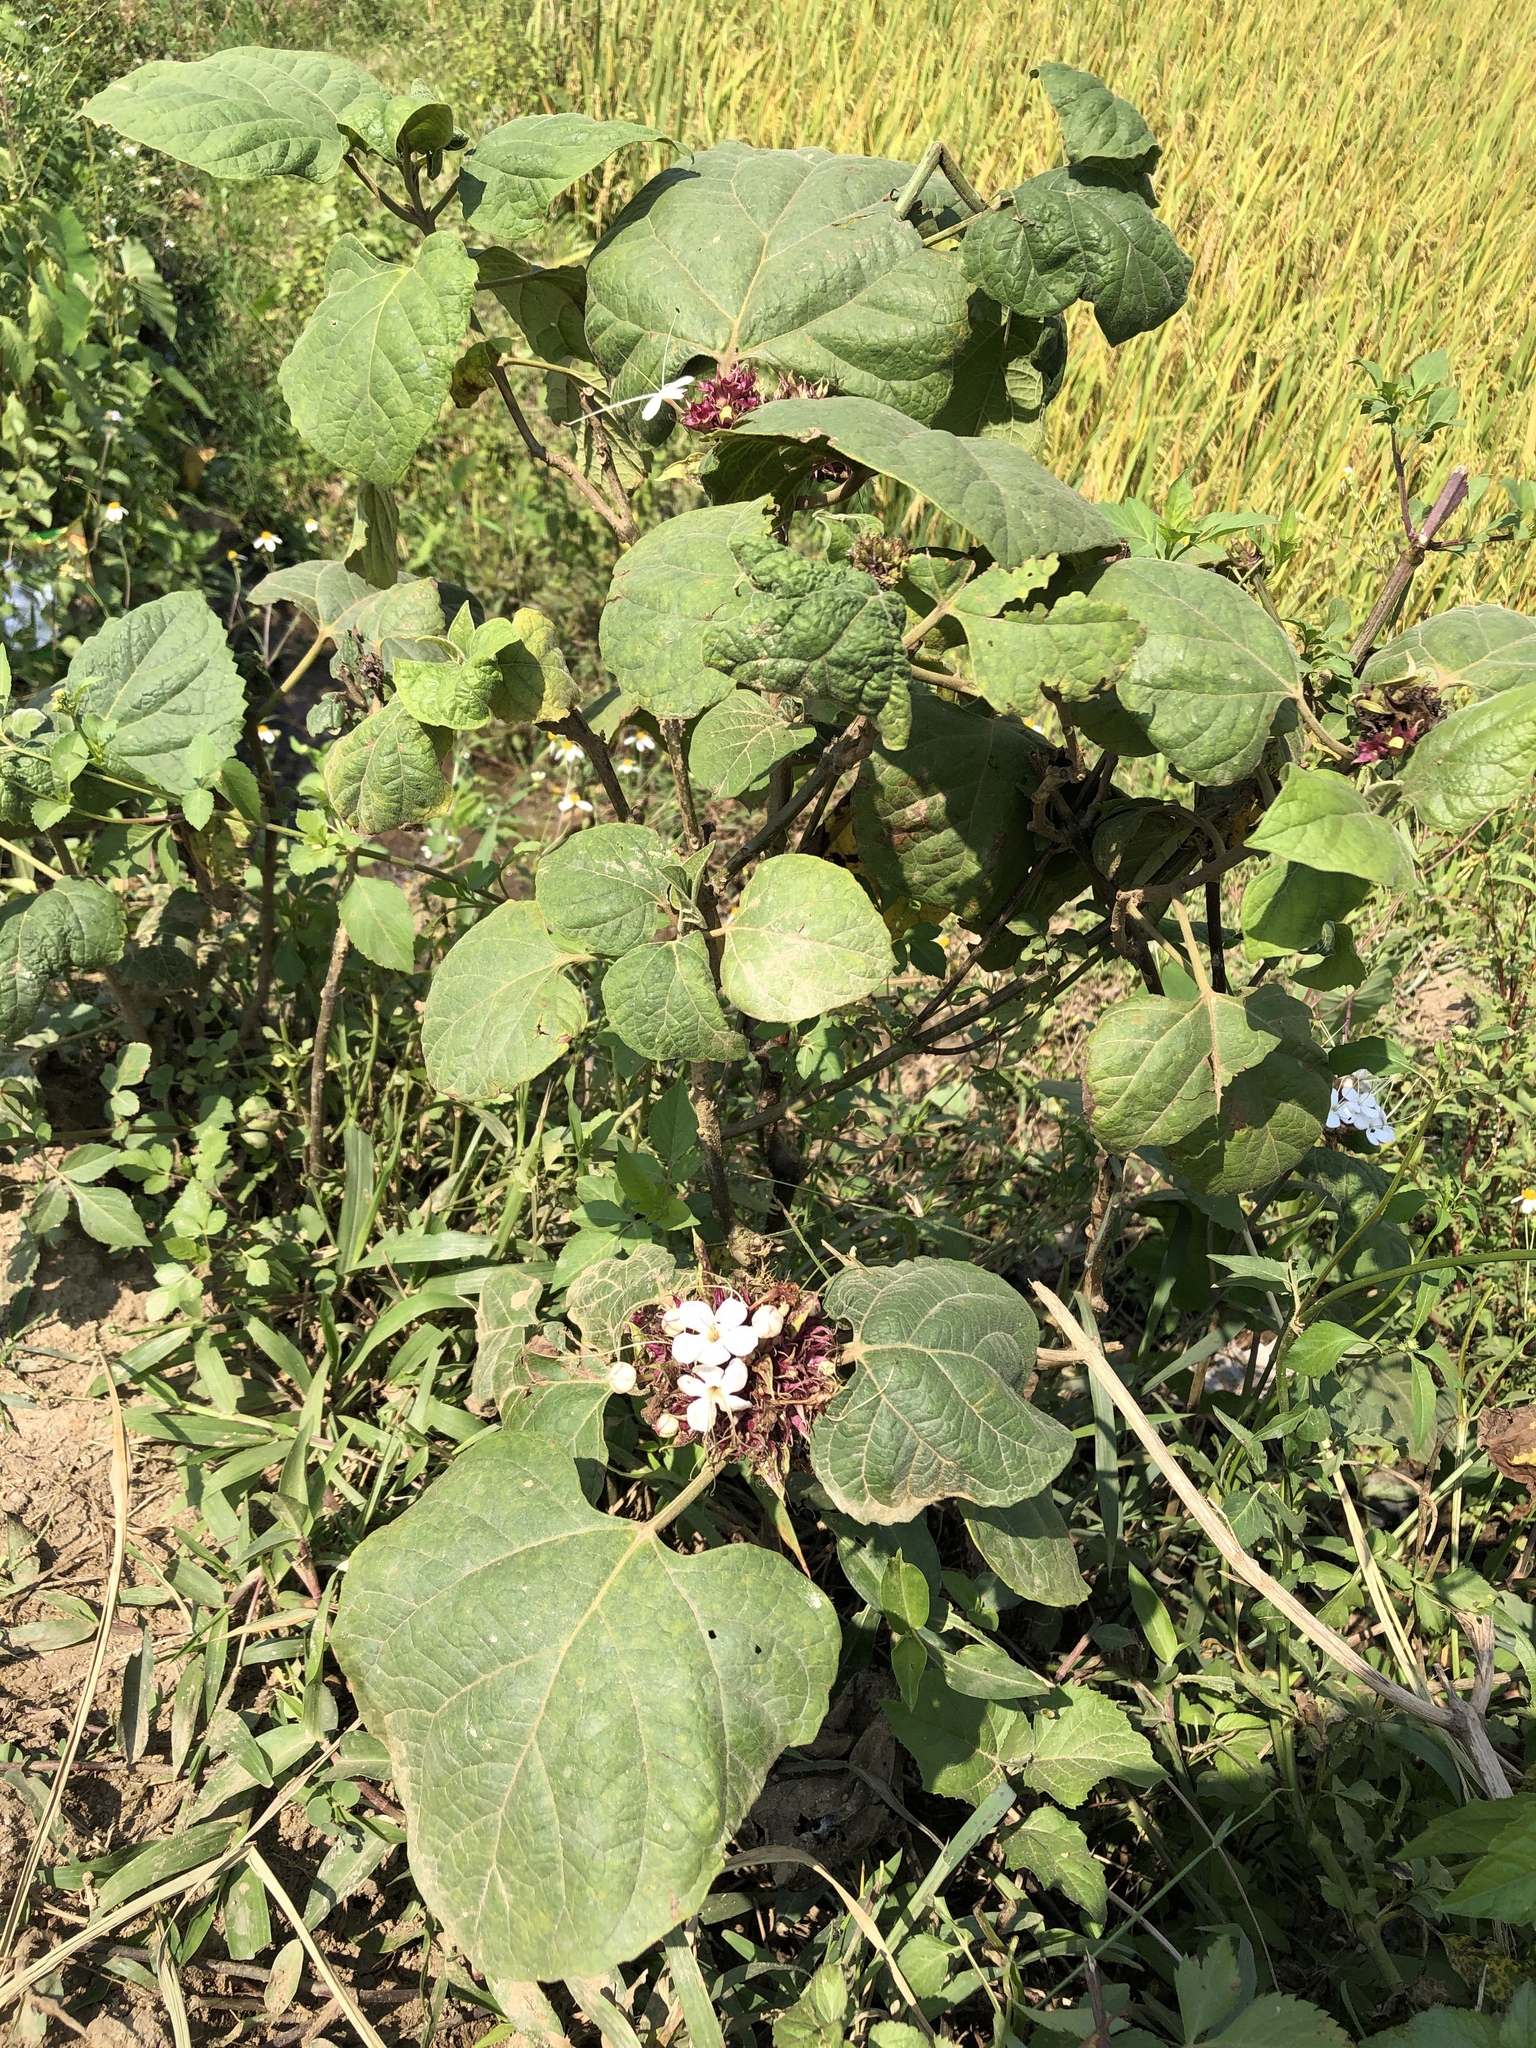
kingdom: Plantae
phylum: Tracheophyta
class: Magnoliopsida
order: Lamiales
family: Lamiaceae
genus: Clerodendrum
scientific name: Clerodendrum trichotomum
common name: Harlequin glorybower
